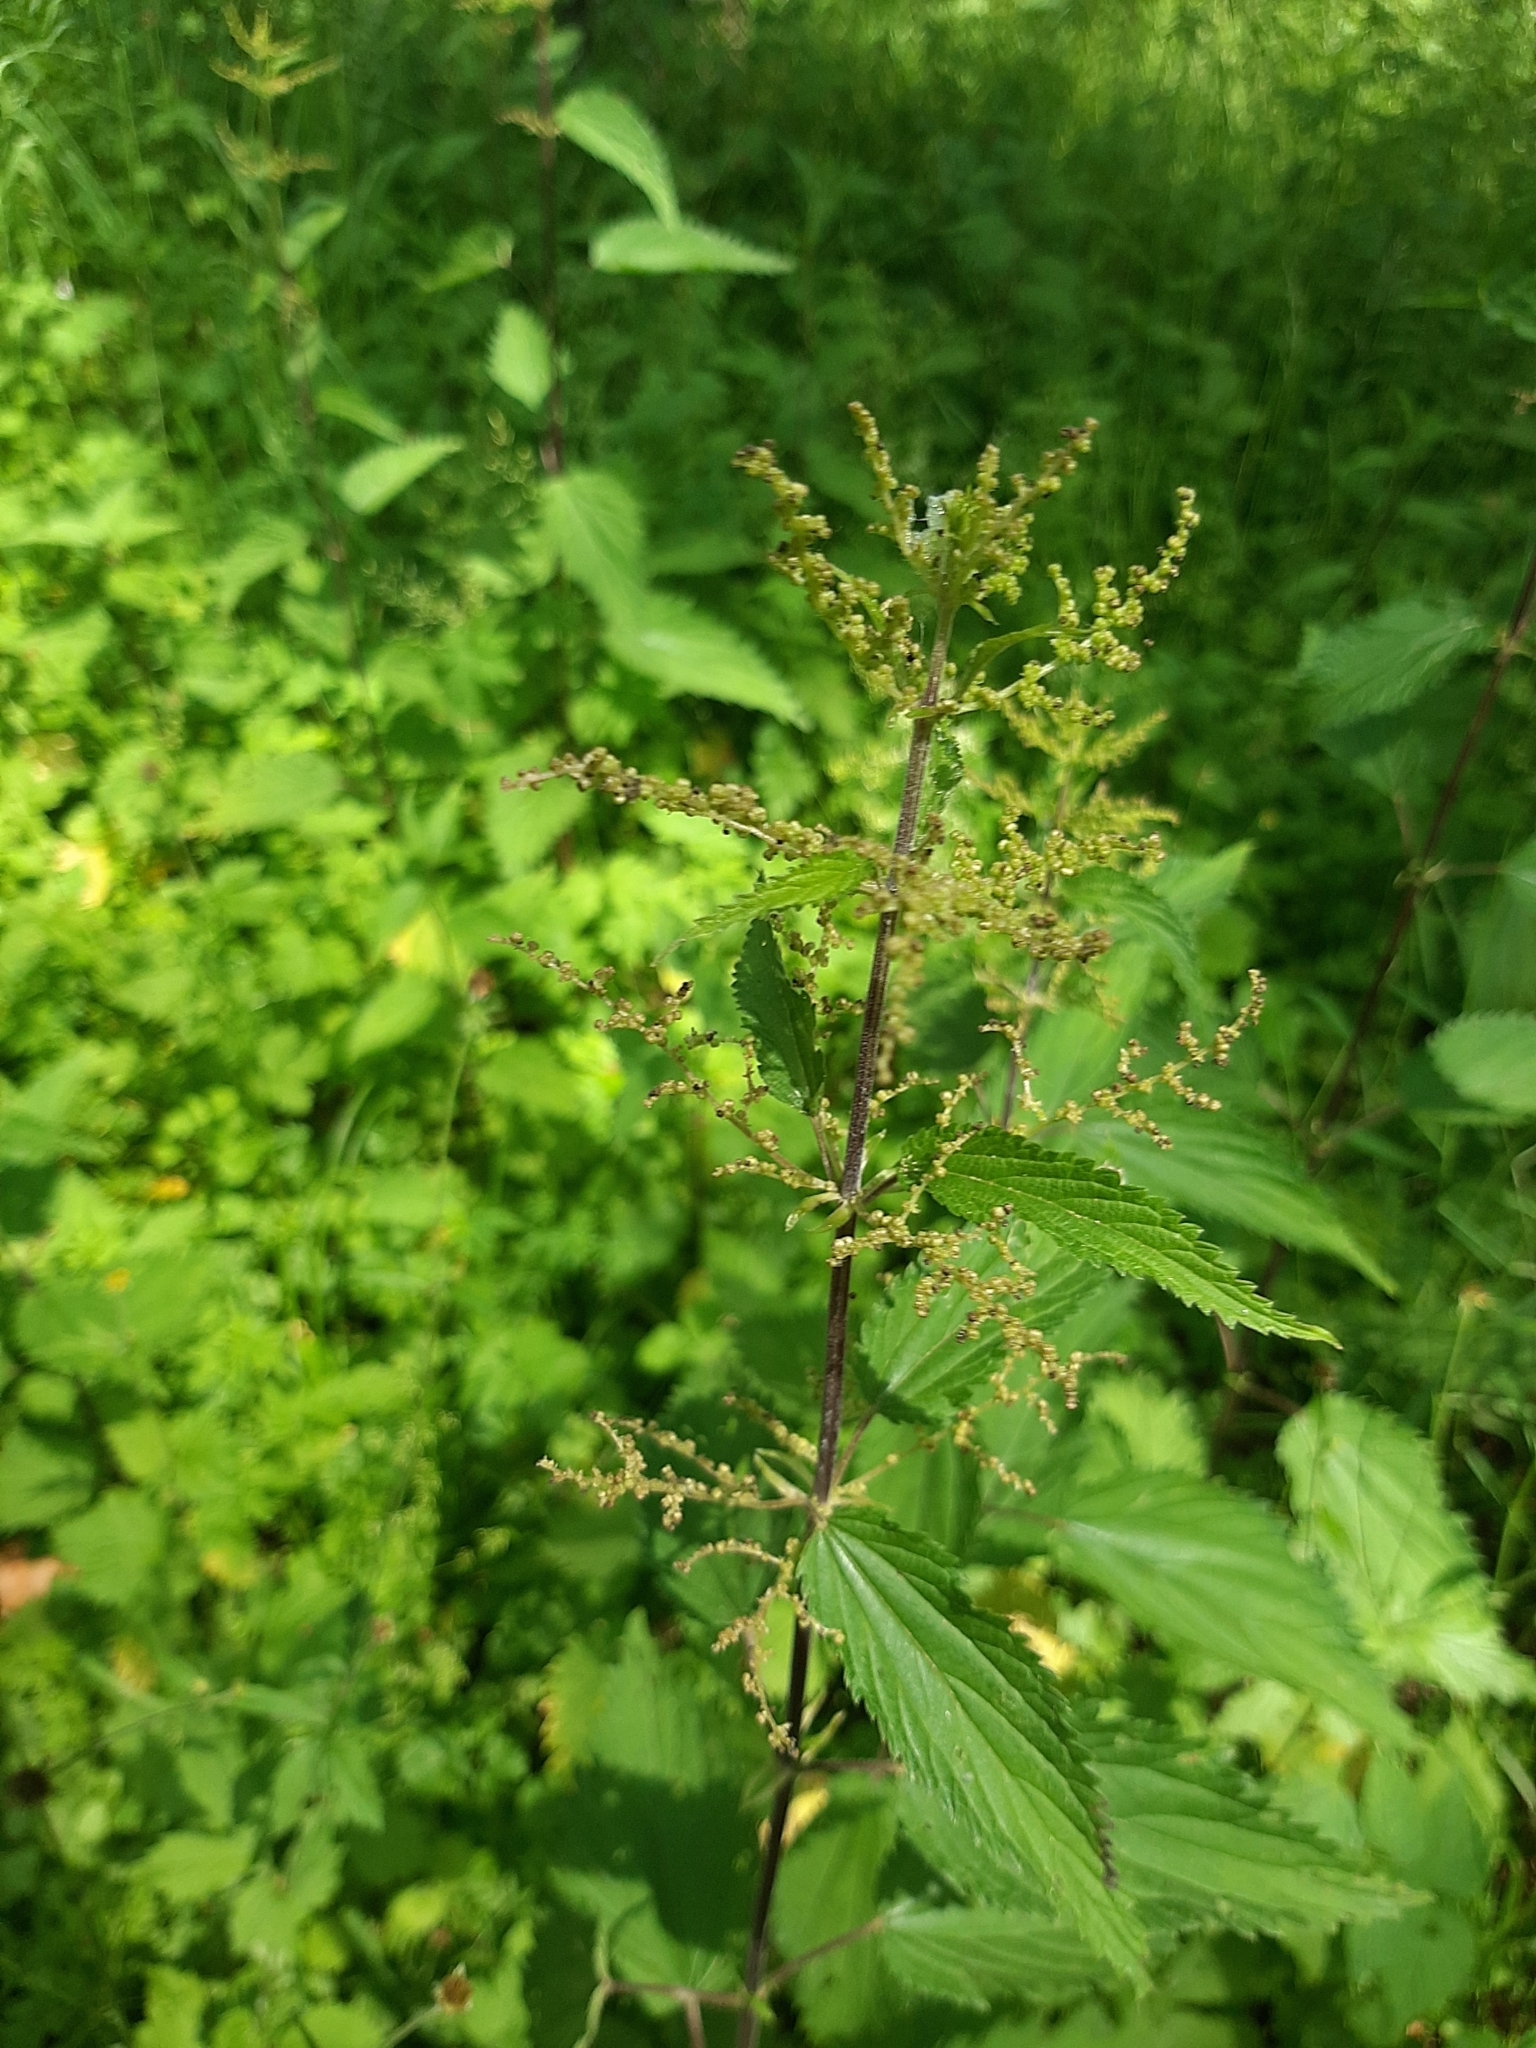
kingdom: Plantae
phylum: Tracheophyta
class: Magnoliopsida
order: Rosales
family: Urticaceae
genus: Urtica
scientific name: Urtica dioica
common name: Common nettle
